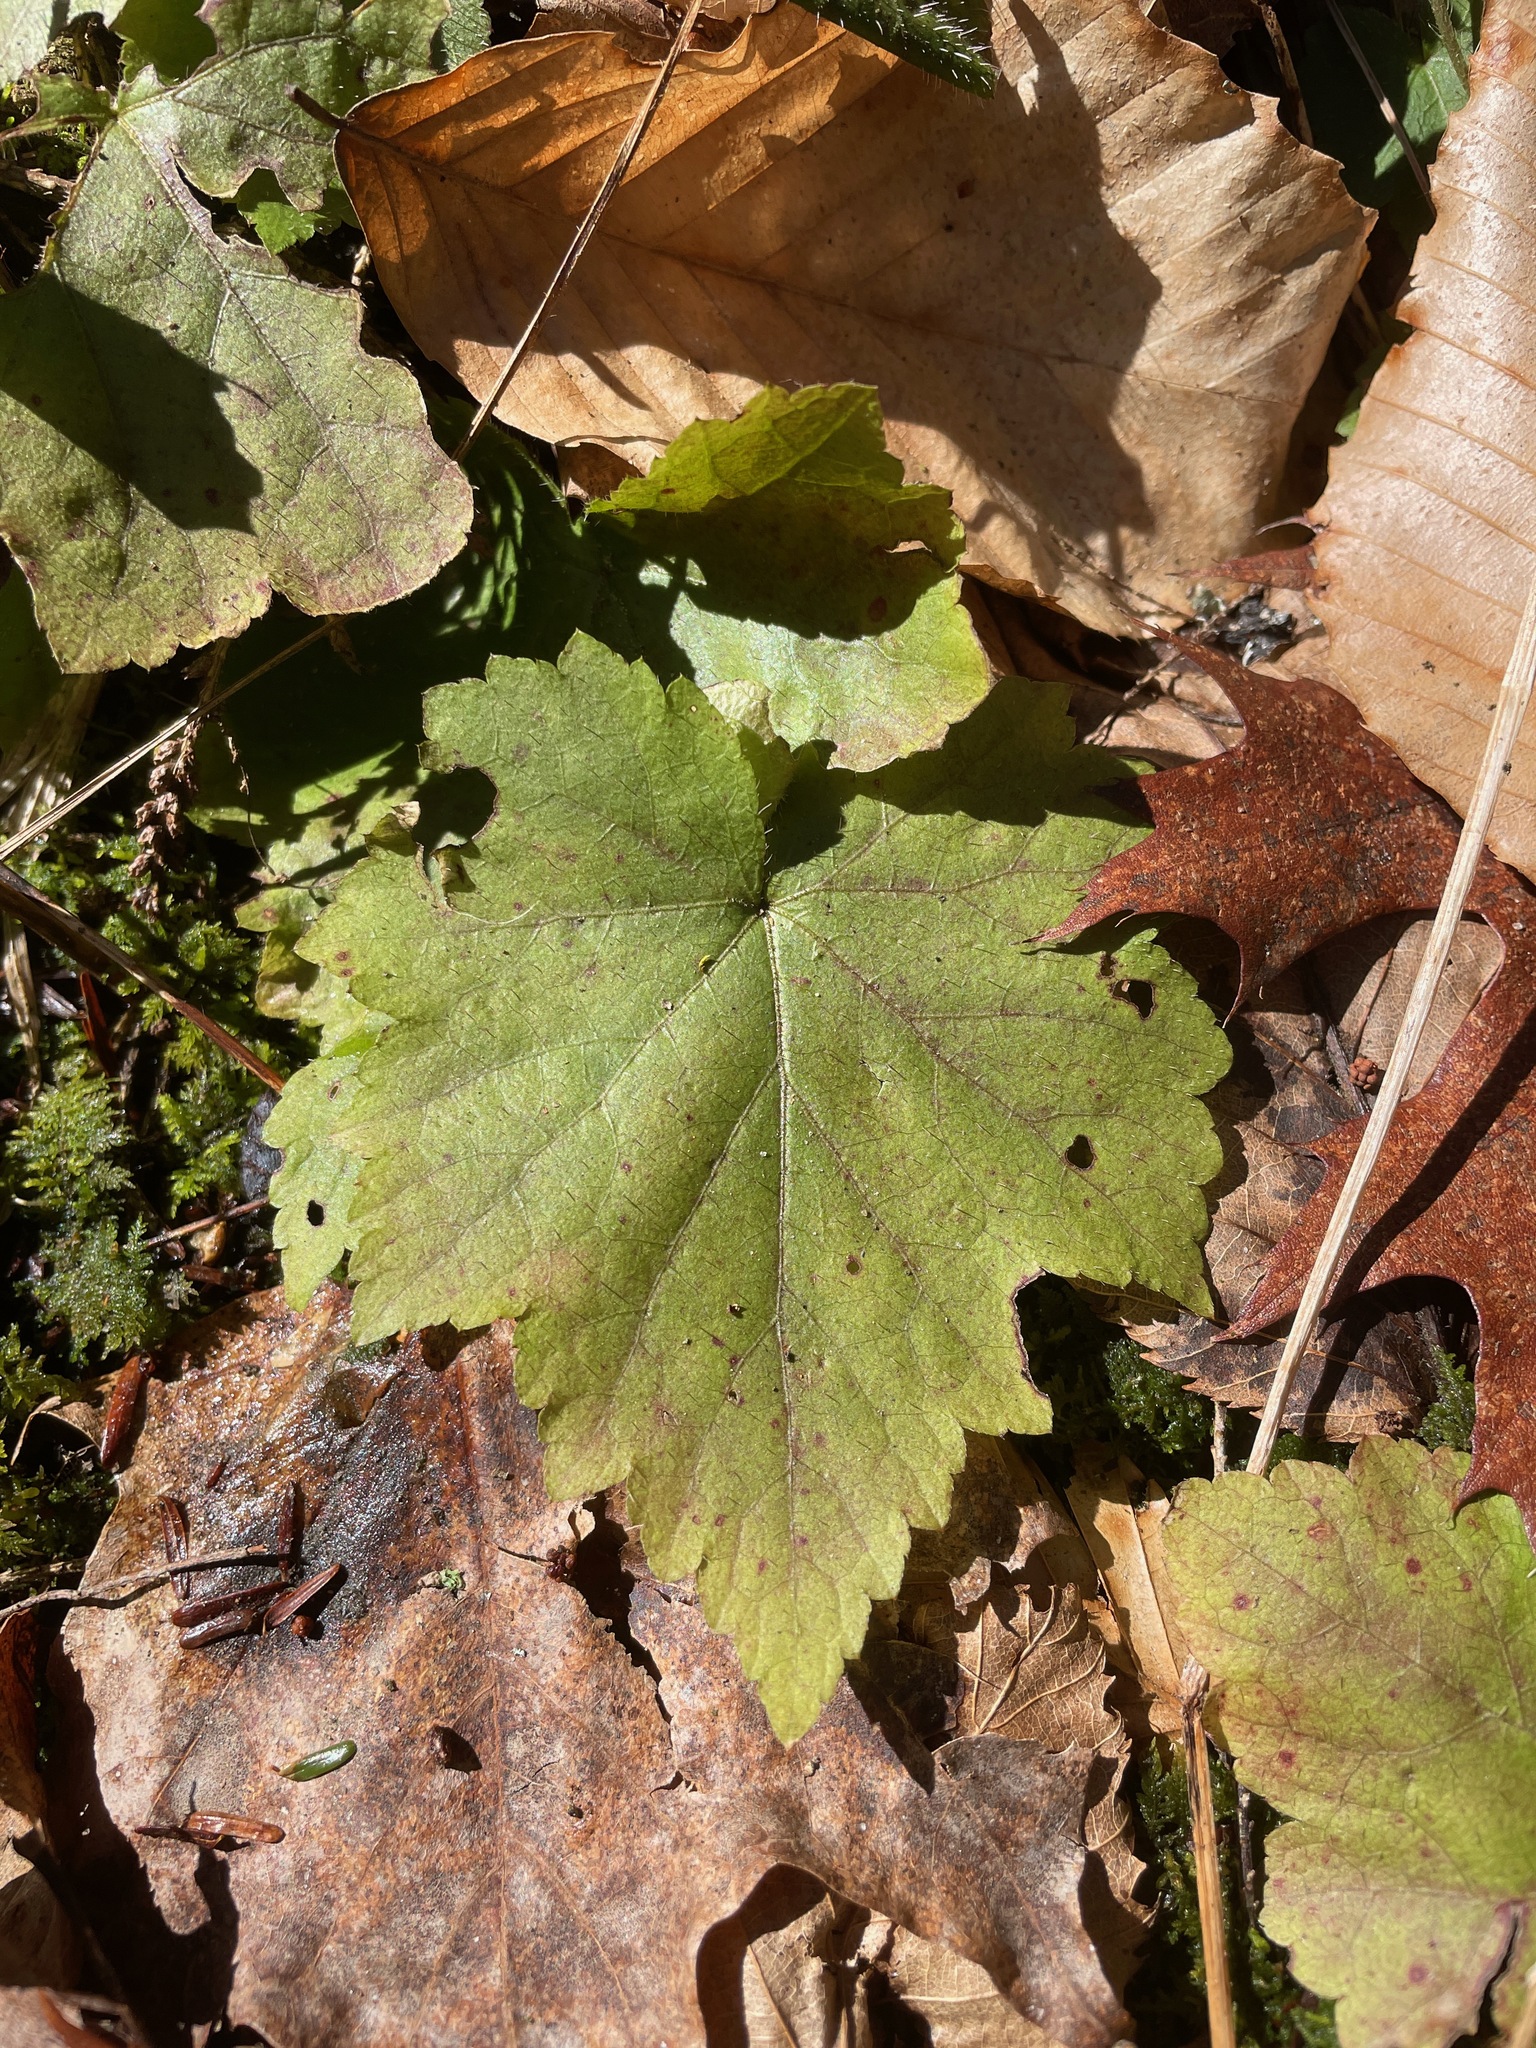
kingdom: Plantae
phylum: Tracheophyta
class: Magnoliopsida
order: Saxifragales
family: Saxifragaceae
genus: Mitella
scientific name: Mitella diphylla
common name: Coolwort
